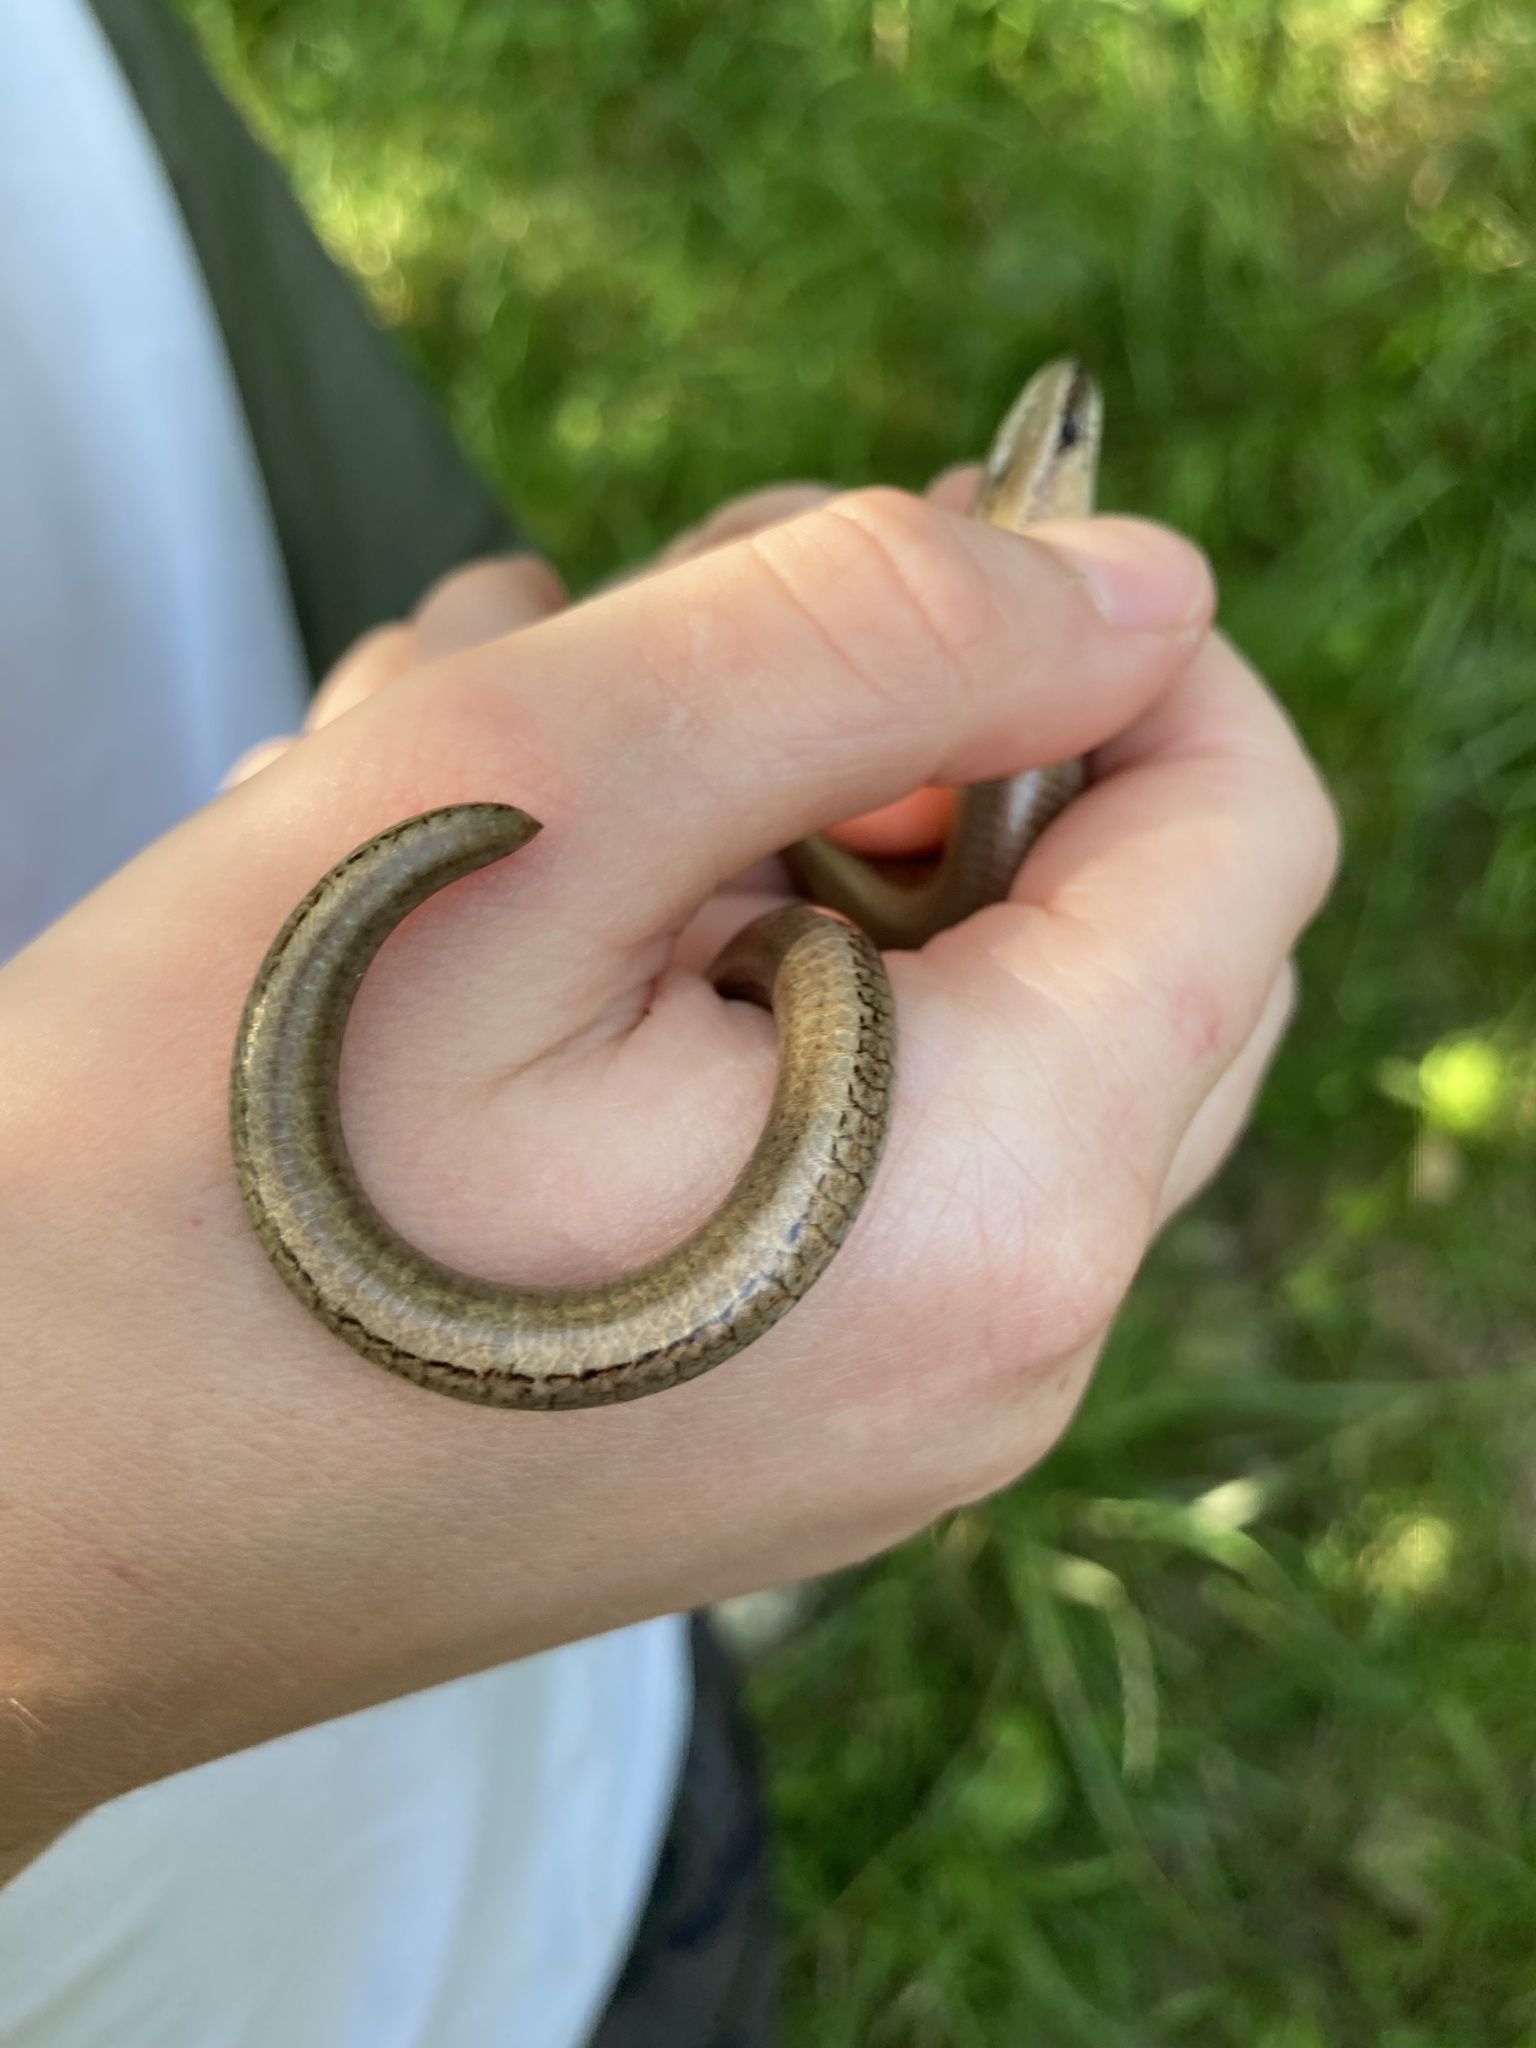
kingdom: Animalia
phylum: Chordata
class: Squamata
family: Anguidae
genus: Anguis
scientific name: Anguis fragilis
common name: Slow worm
